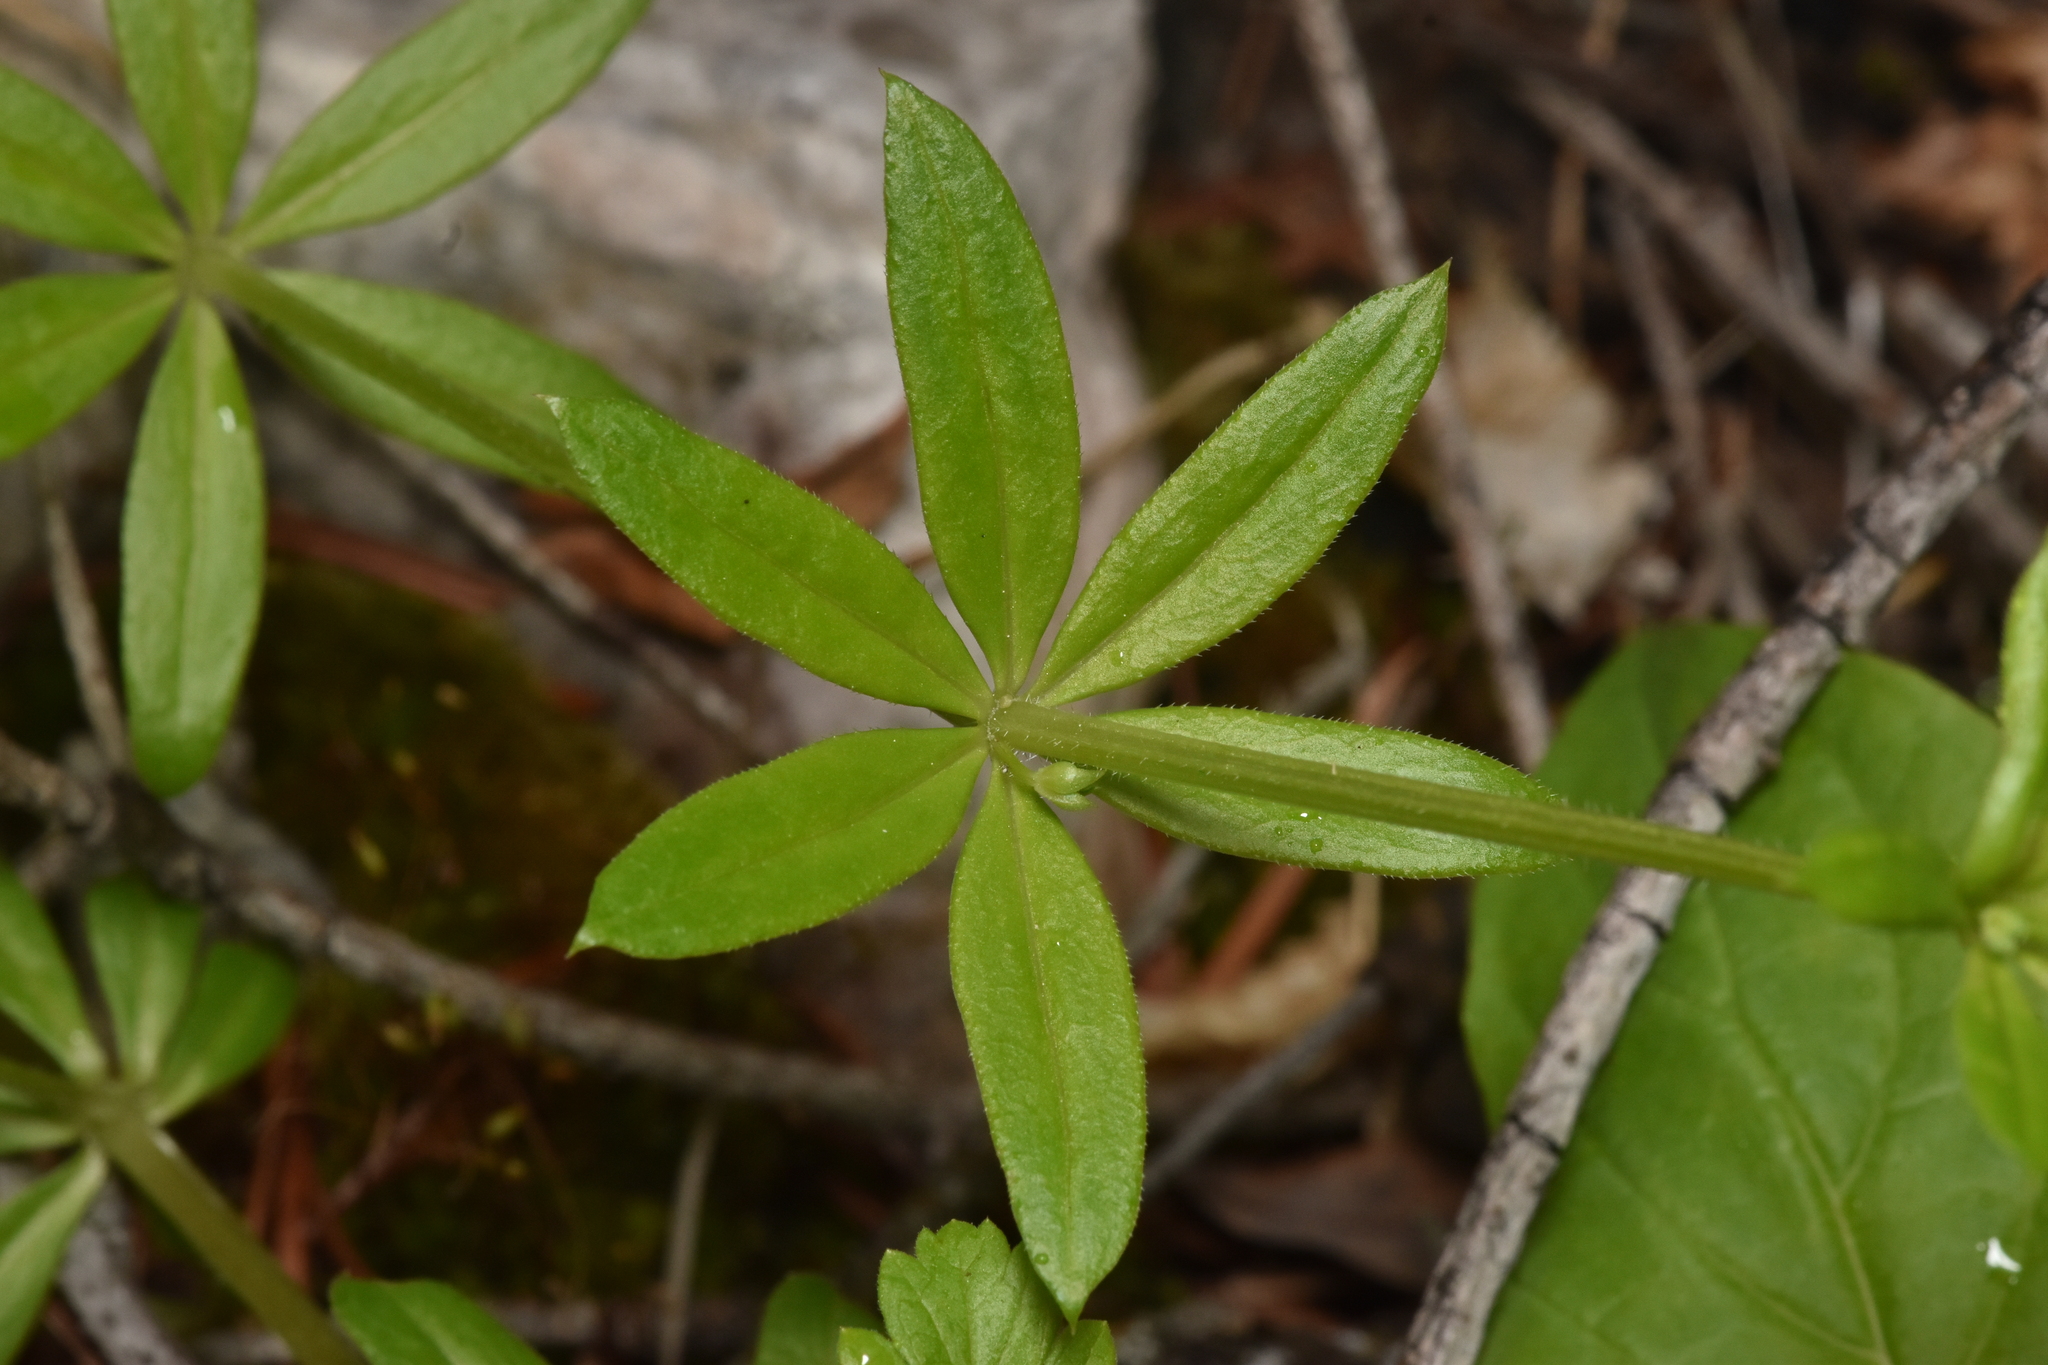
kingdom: Plantae
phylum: Tracheophyta
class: Magnoliopsida
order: Gentianales
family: Rubiaceae
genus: Galium
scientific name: Galium triflorum
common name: Fragrant bedstraw
